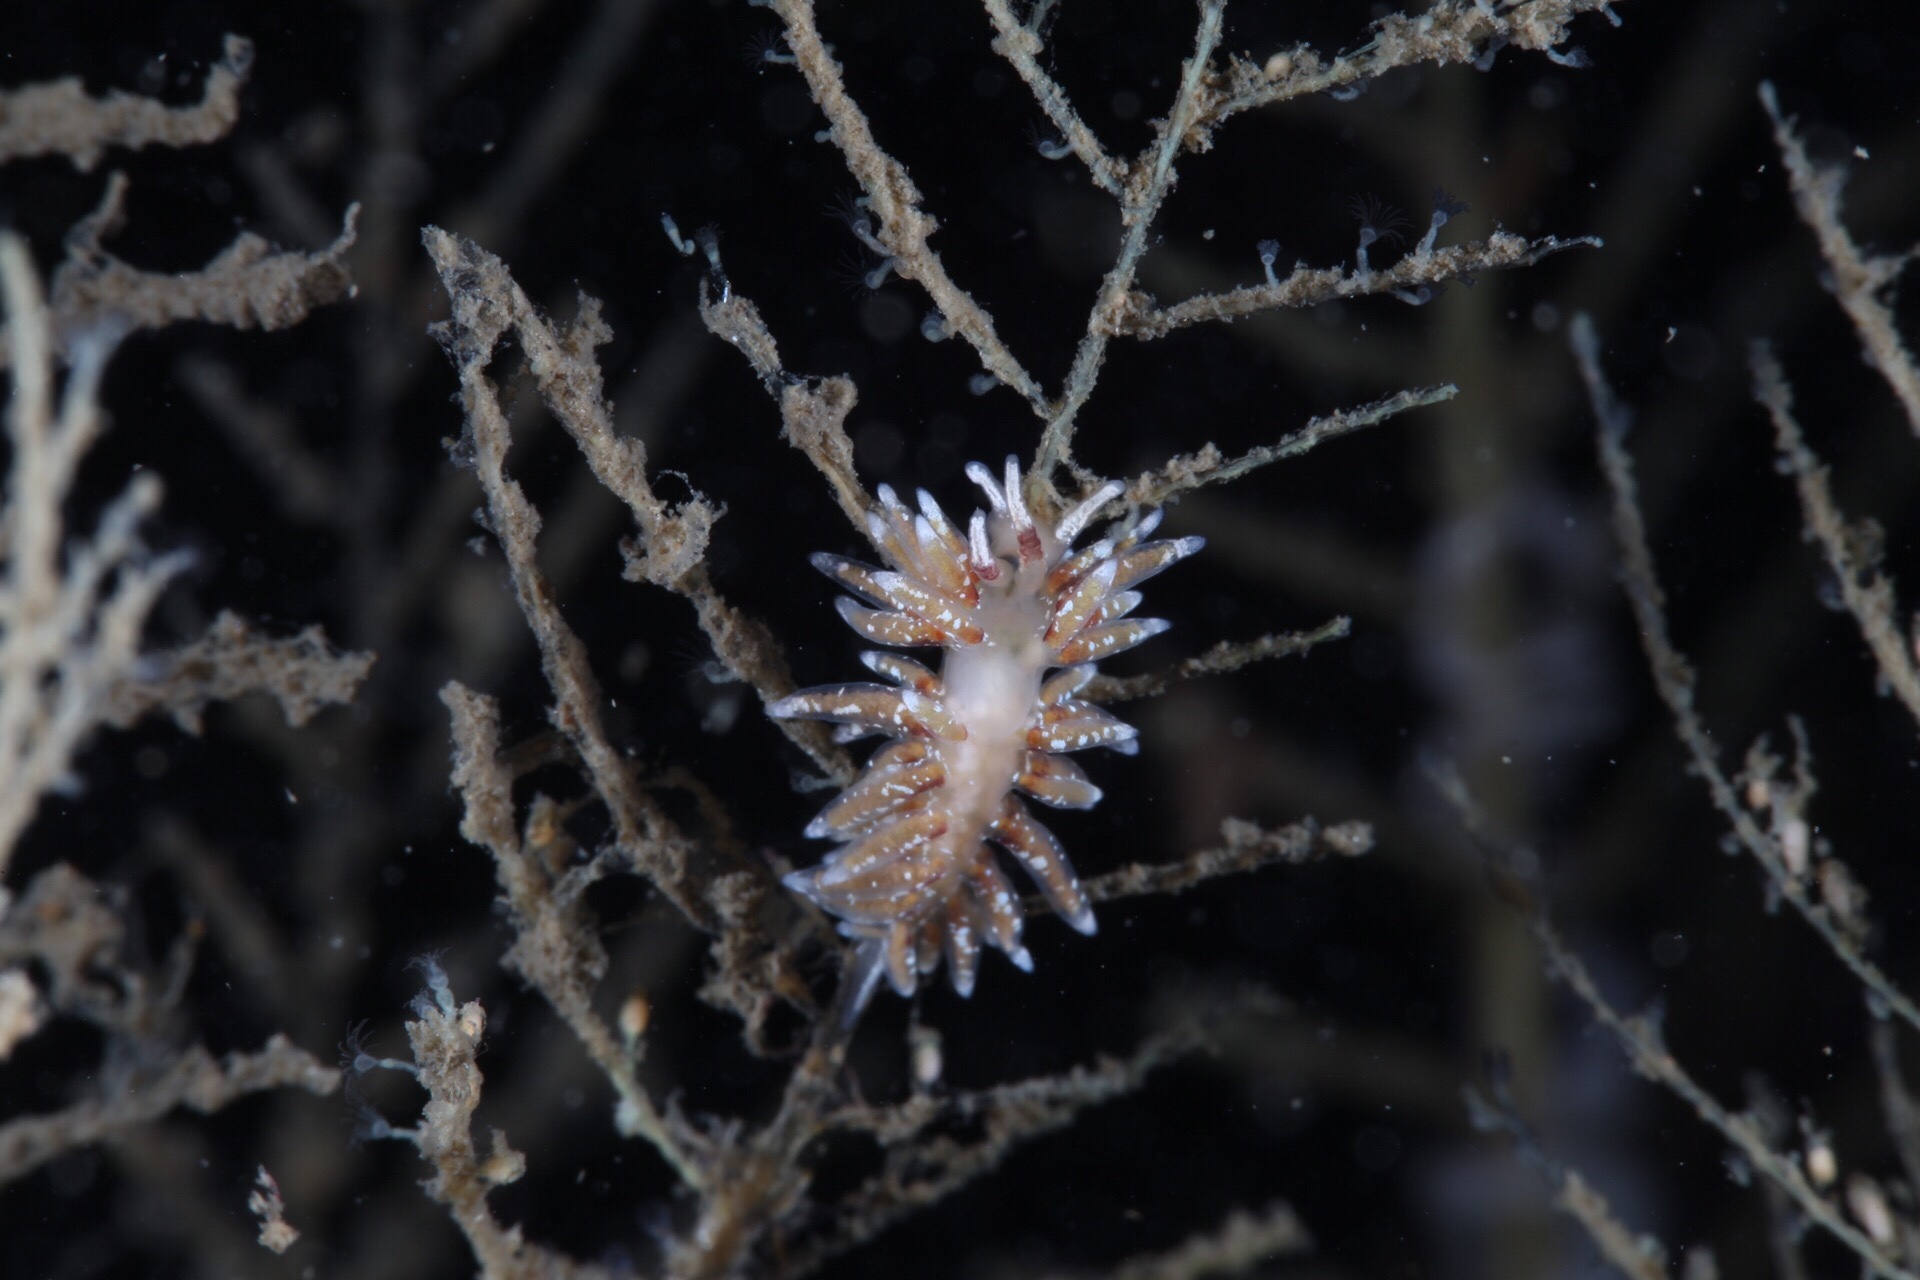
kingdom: Animalia
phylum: Mollusca
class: Gastropoda
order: Nudibranchia
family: Trinchesiidae
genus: Rubramoena
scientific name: Rubramoena rubescens
